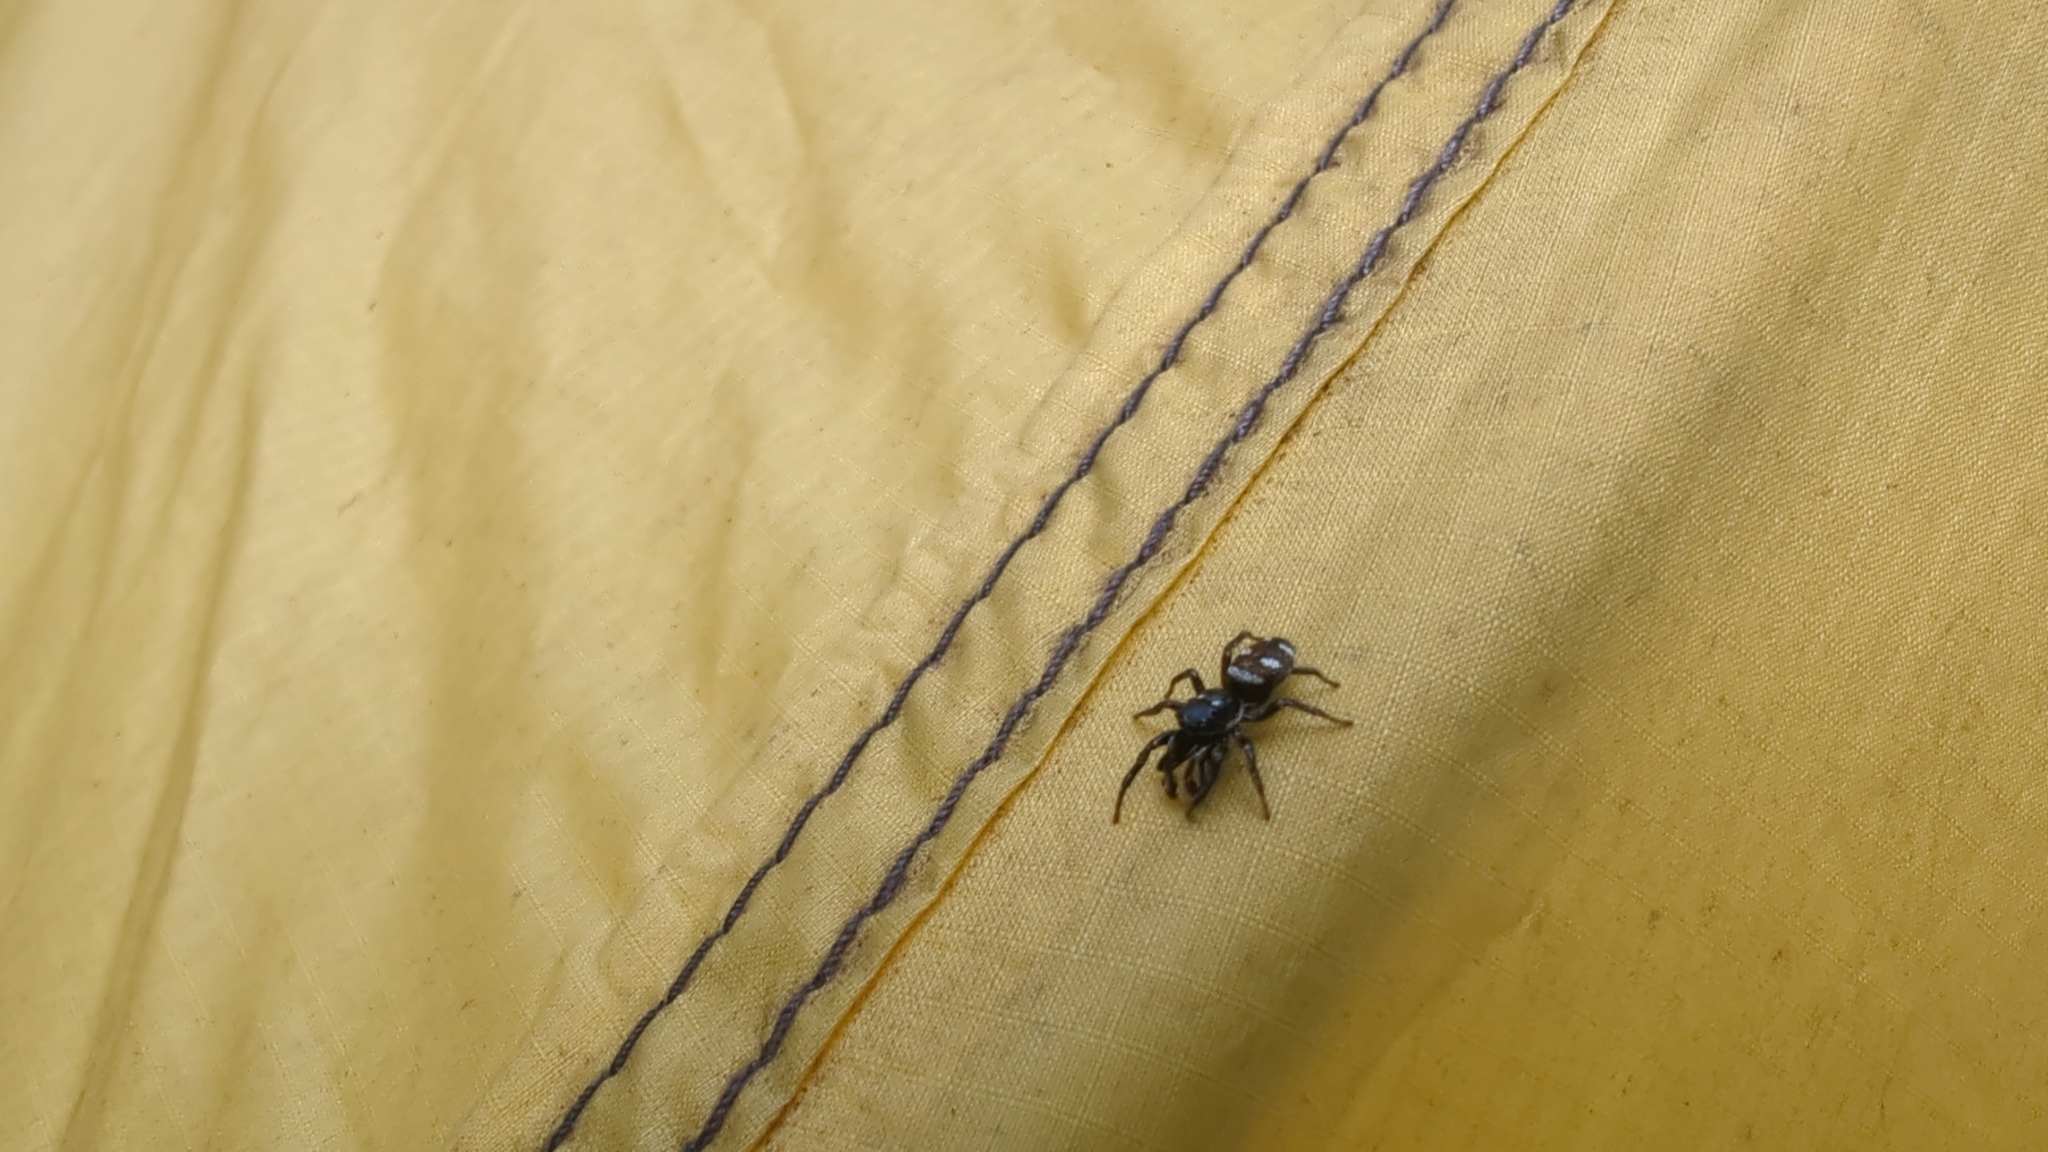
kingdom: Animalia
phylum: Arthropoda
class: Arachnida
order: Araneae
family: Salticidae
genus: Salticus
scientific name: Salticus scenicus
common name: Zebra jumper
